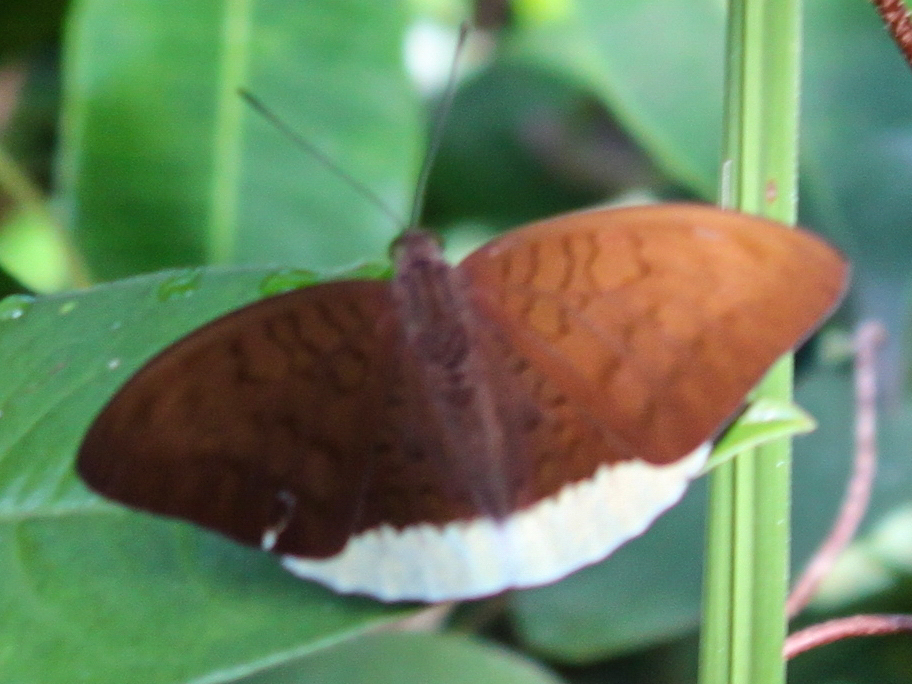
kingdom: Animalia
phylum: Arthropoda
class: Insecta
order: Lepidoptera
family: Nymphalidae
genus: Tanaecia
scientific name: Tanaecia julii
